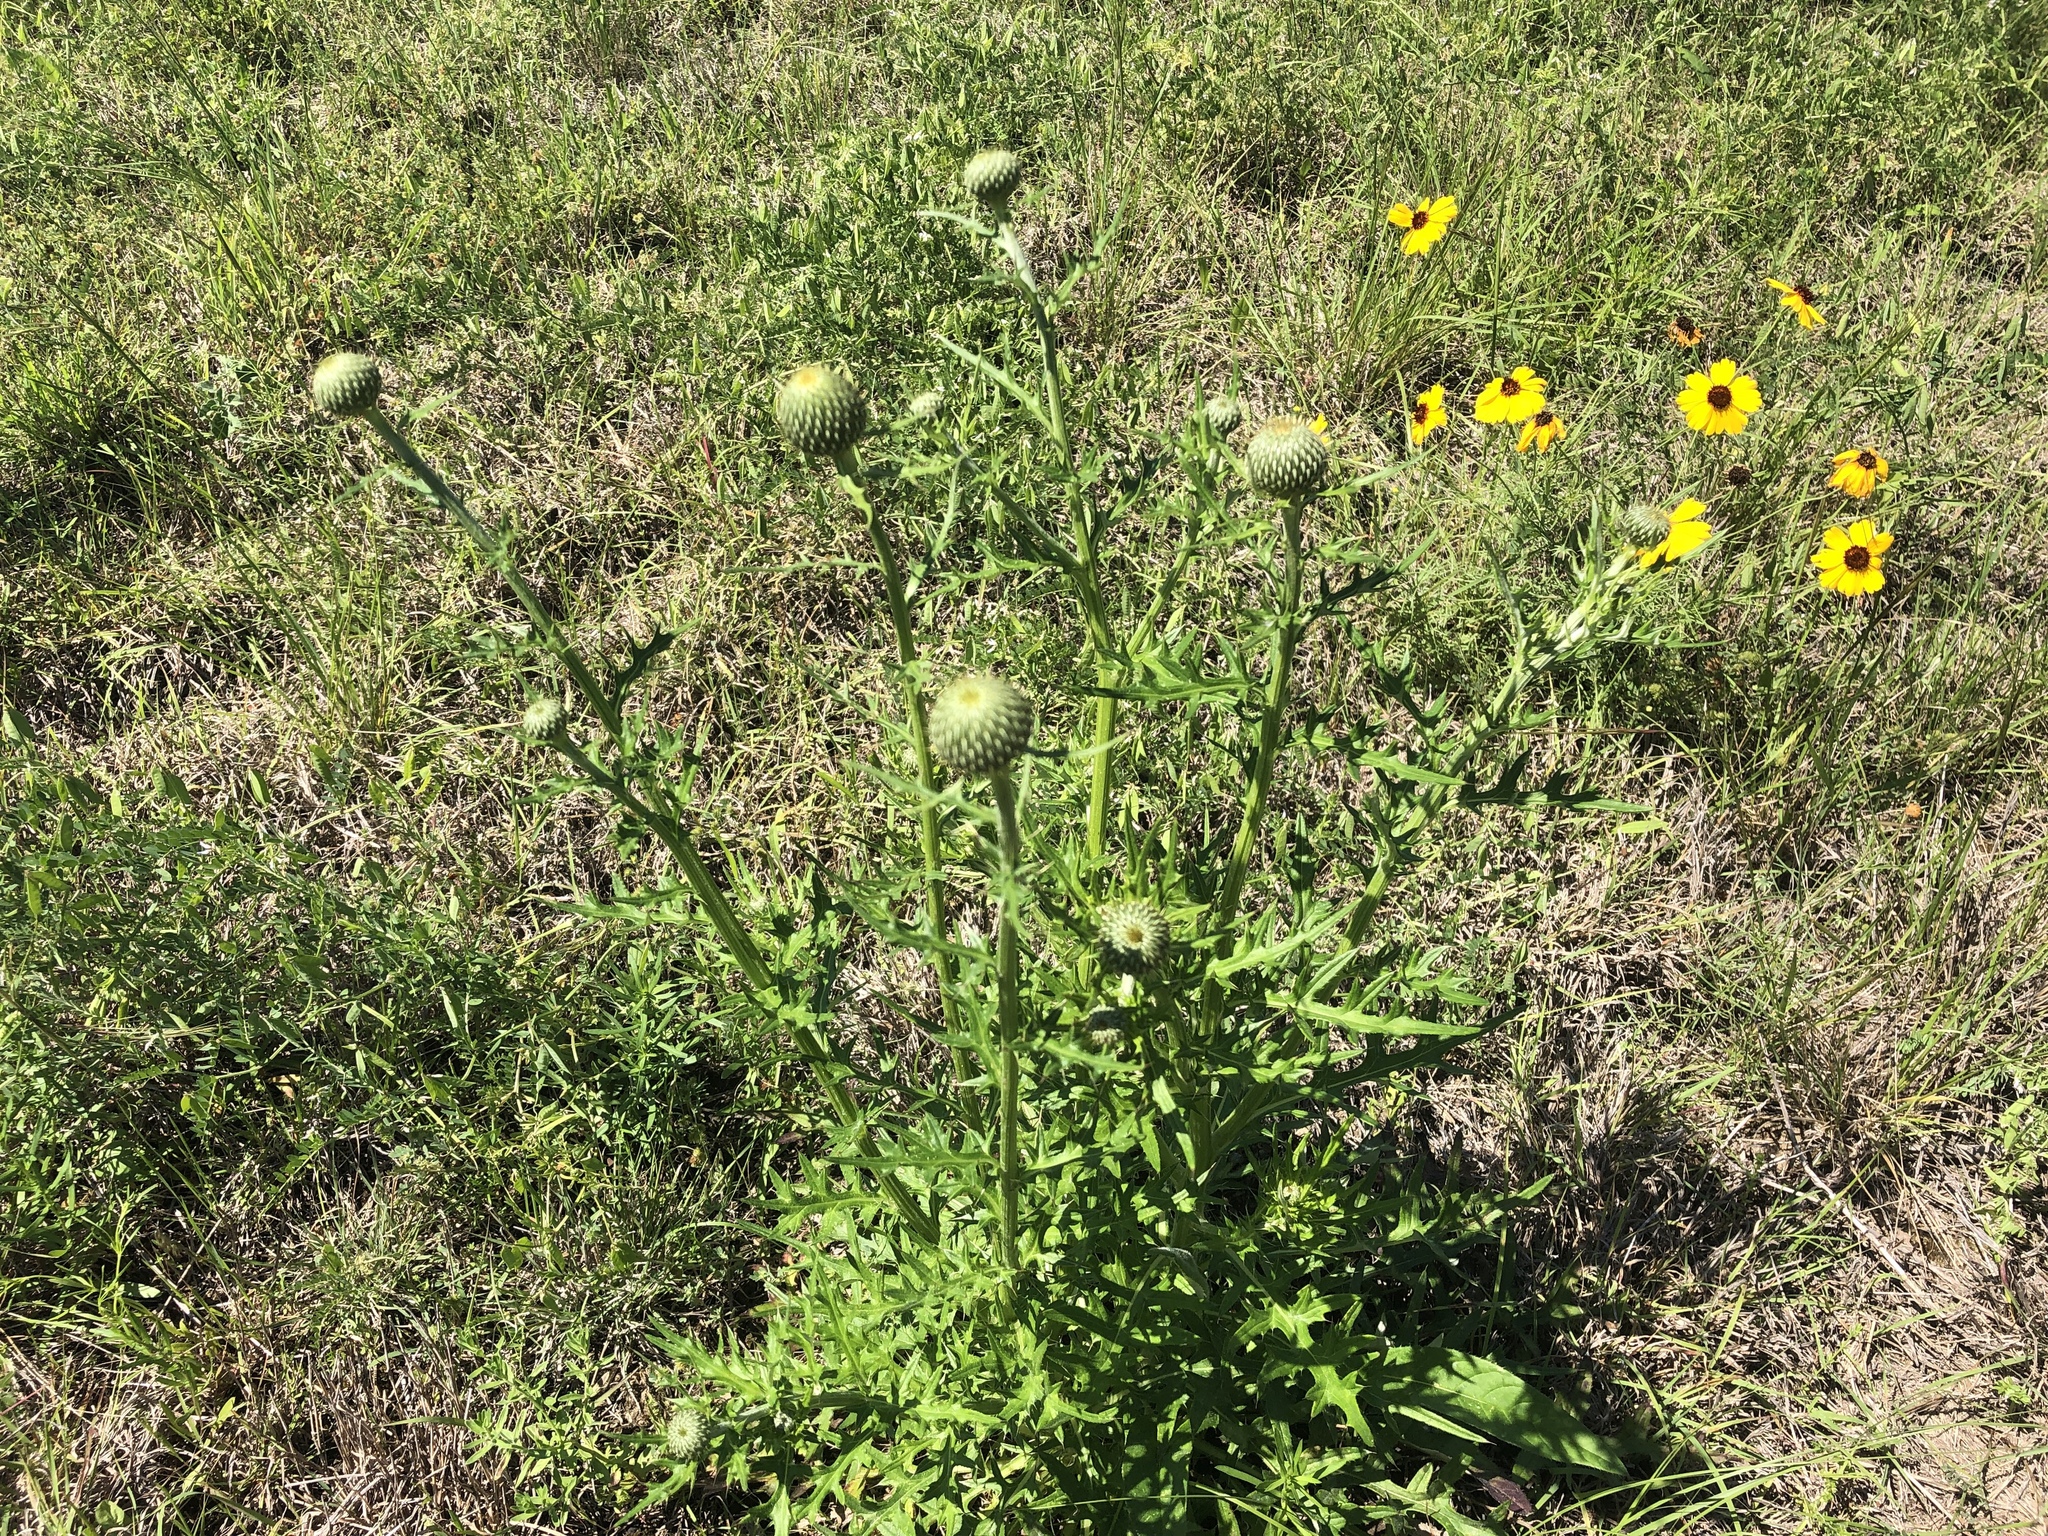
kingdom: Plantae
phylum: Tracheophyta
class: Magnoliopsida
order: Asterales
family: Asteraceae
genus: Cirsium
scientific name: Cirsium texanum
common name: Texas purple thistle
